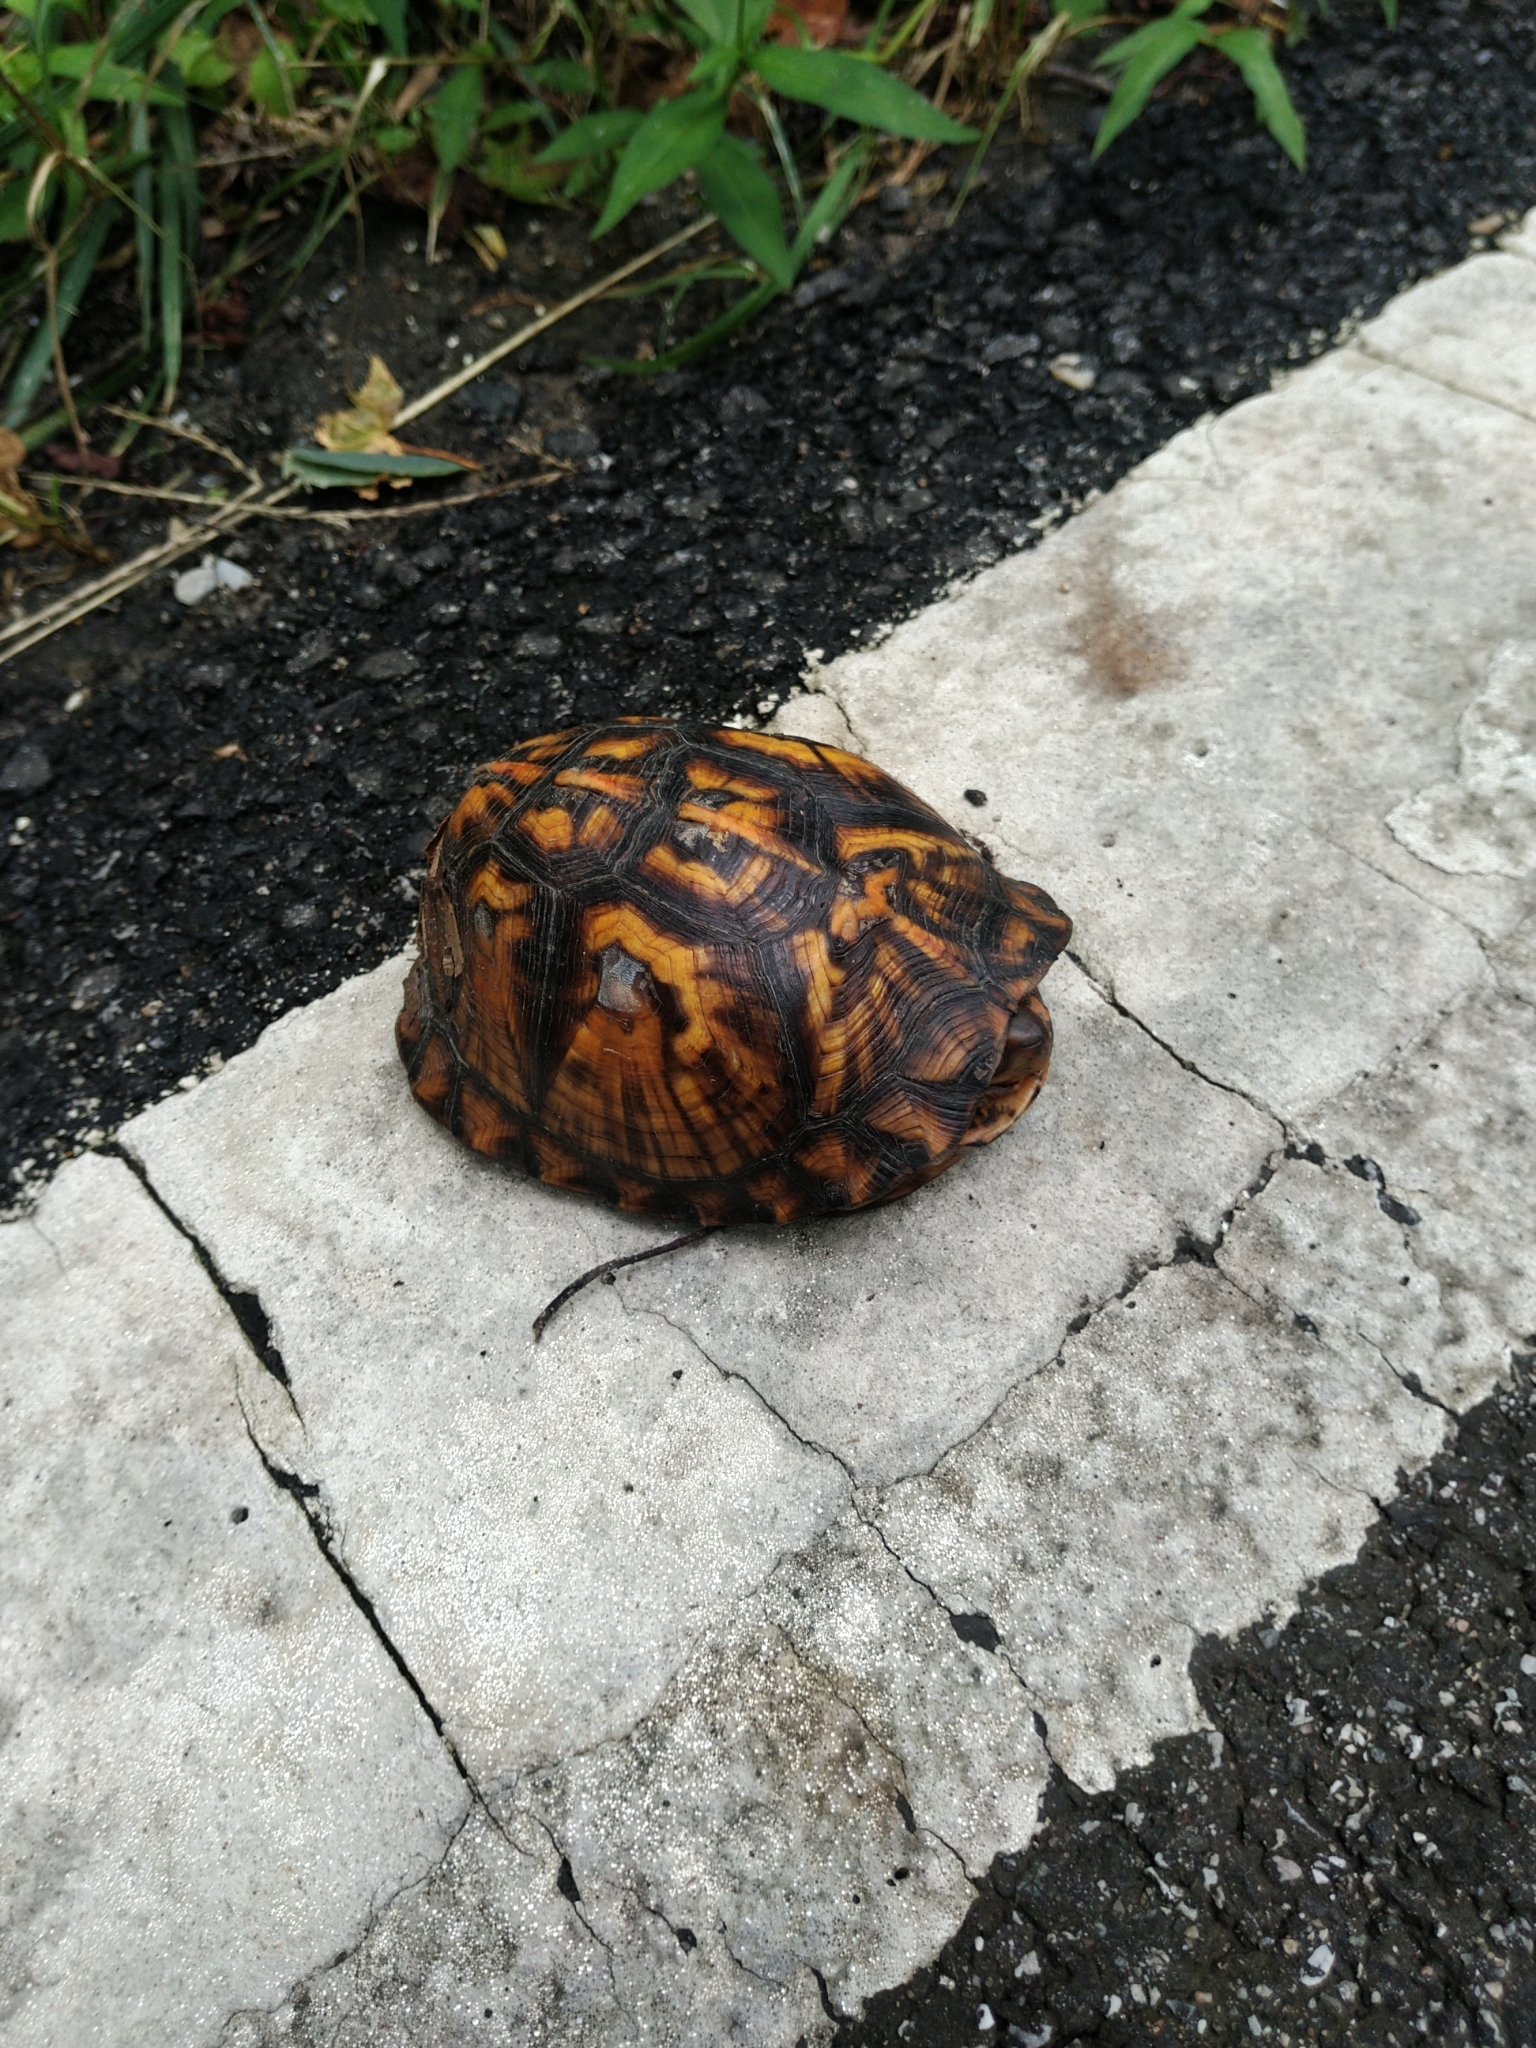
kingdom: Animalia
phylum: Chordata
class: Testudines
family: Emydidae
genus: Terrapene
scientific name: Terrapene carolina
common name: Common box turtle
